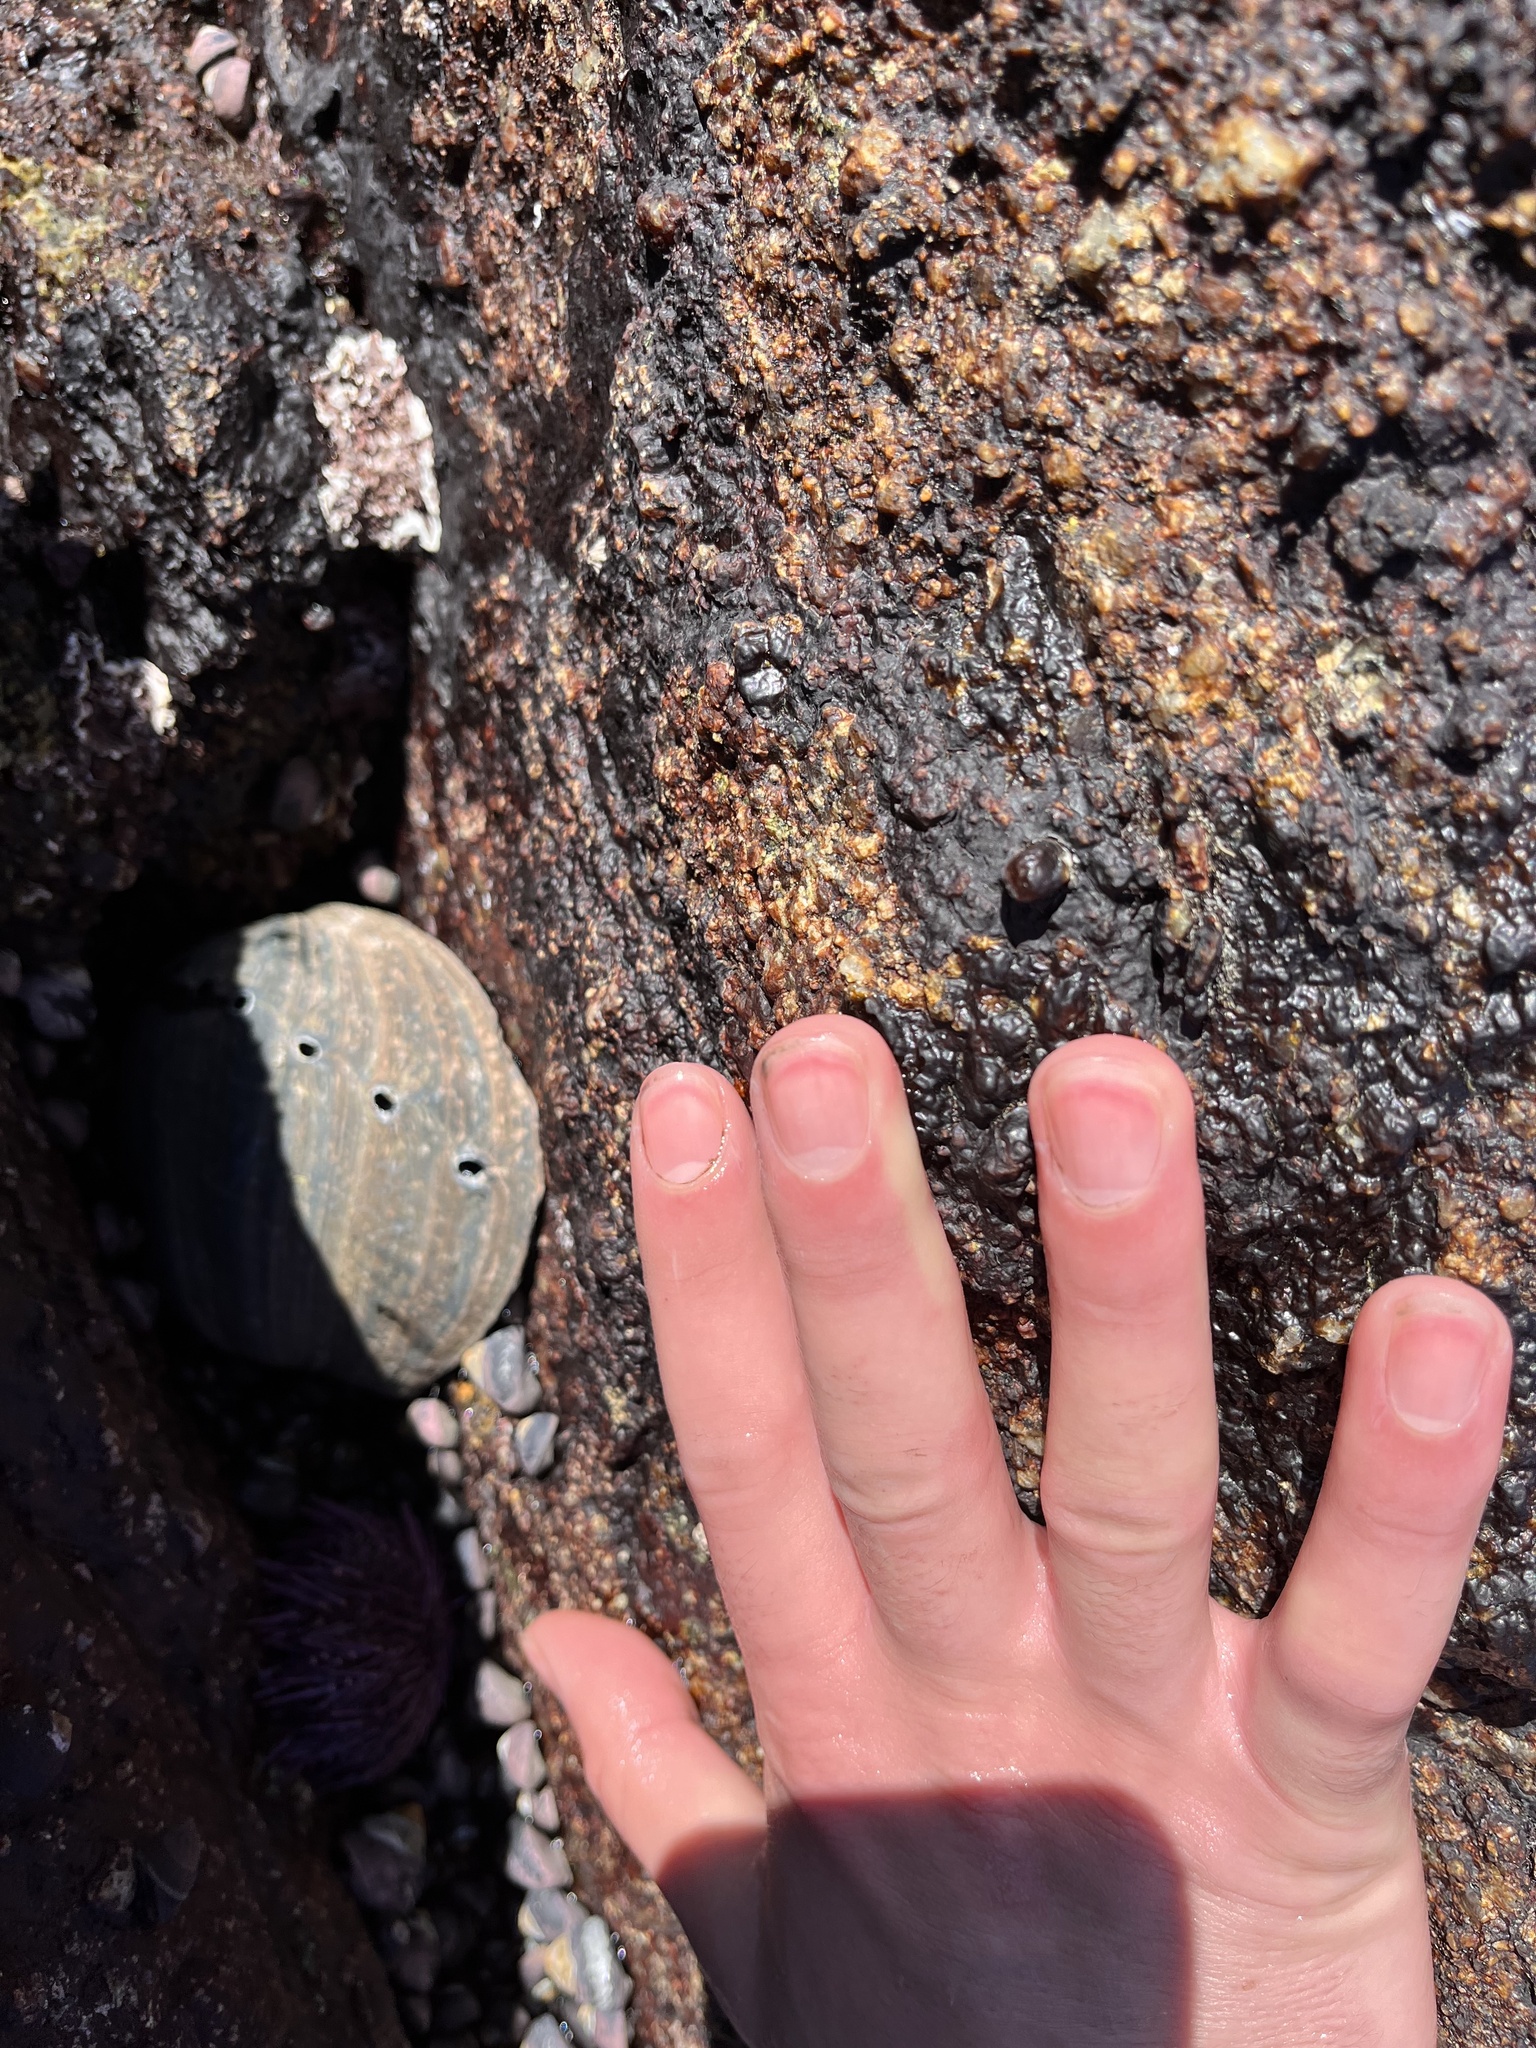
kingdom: Animalia
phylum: Mollusca
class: Gastropoda
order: Lepetellida
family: Haliotidae
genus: Haliotis
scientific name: Haliotis cracherodii
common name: Black abalone
